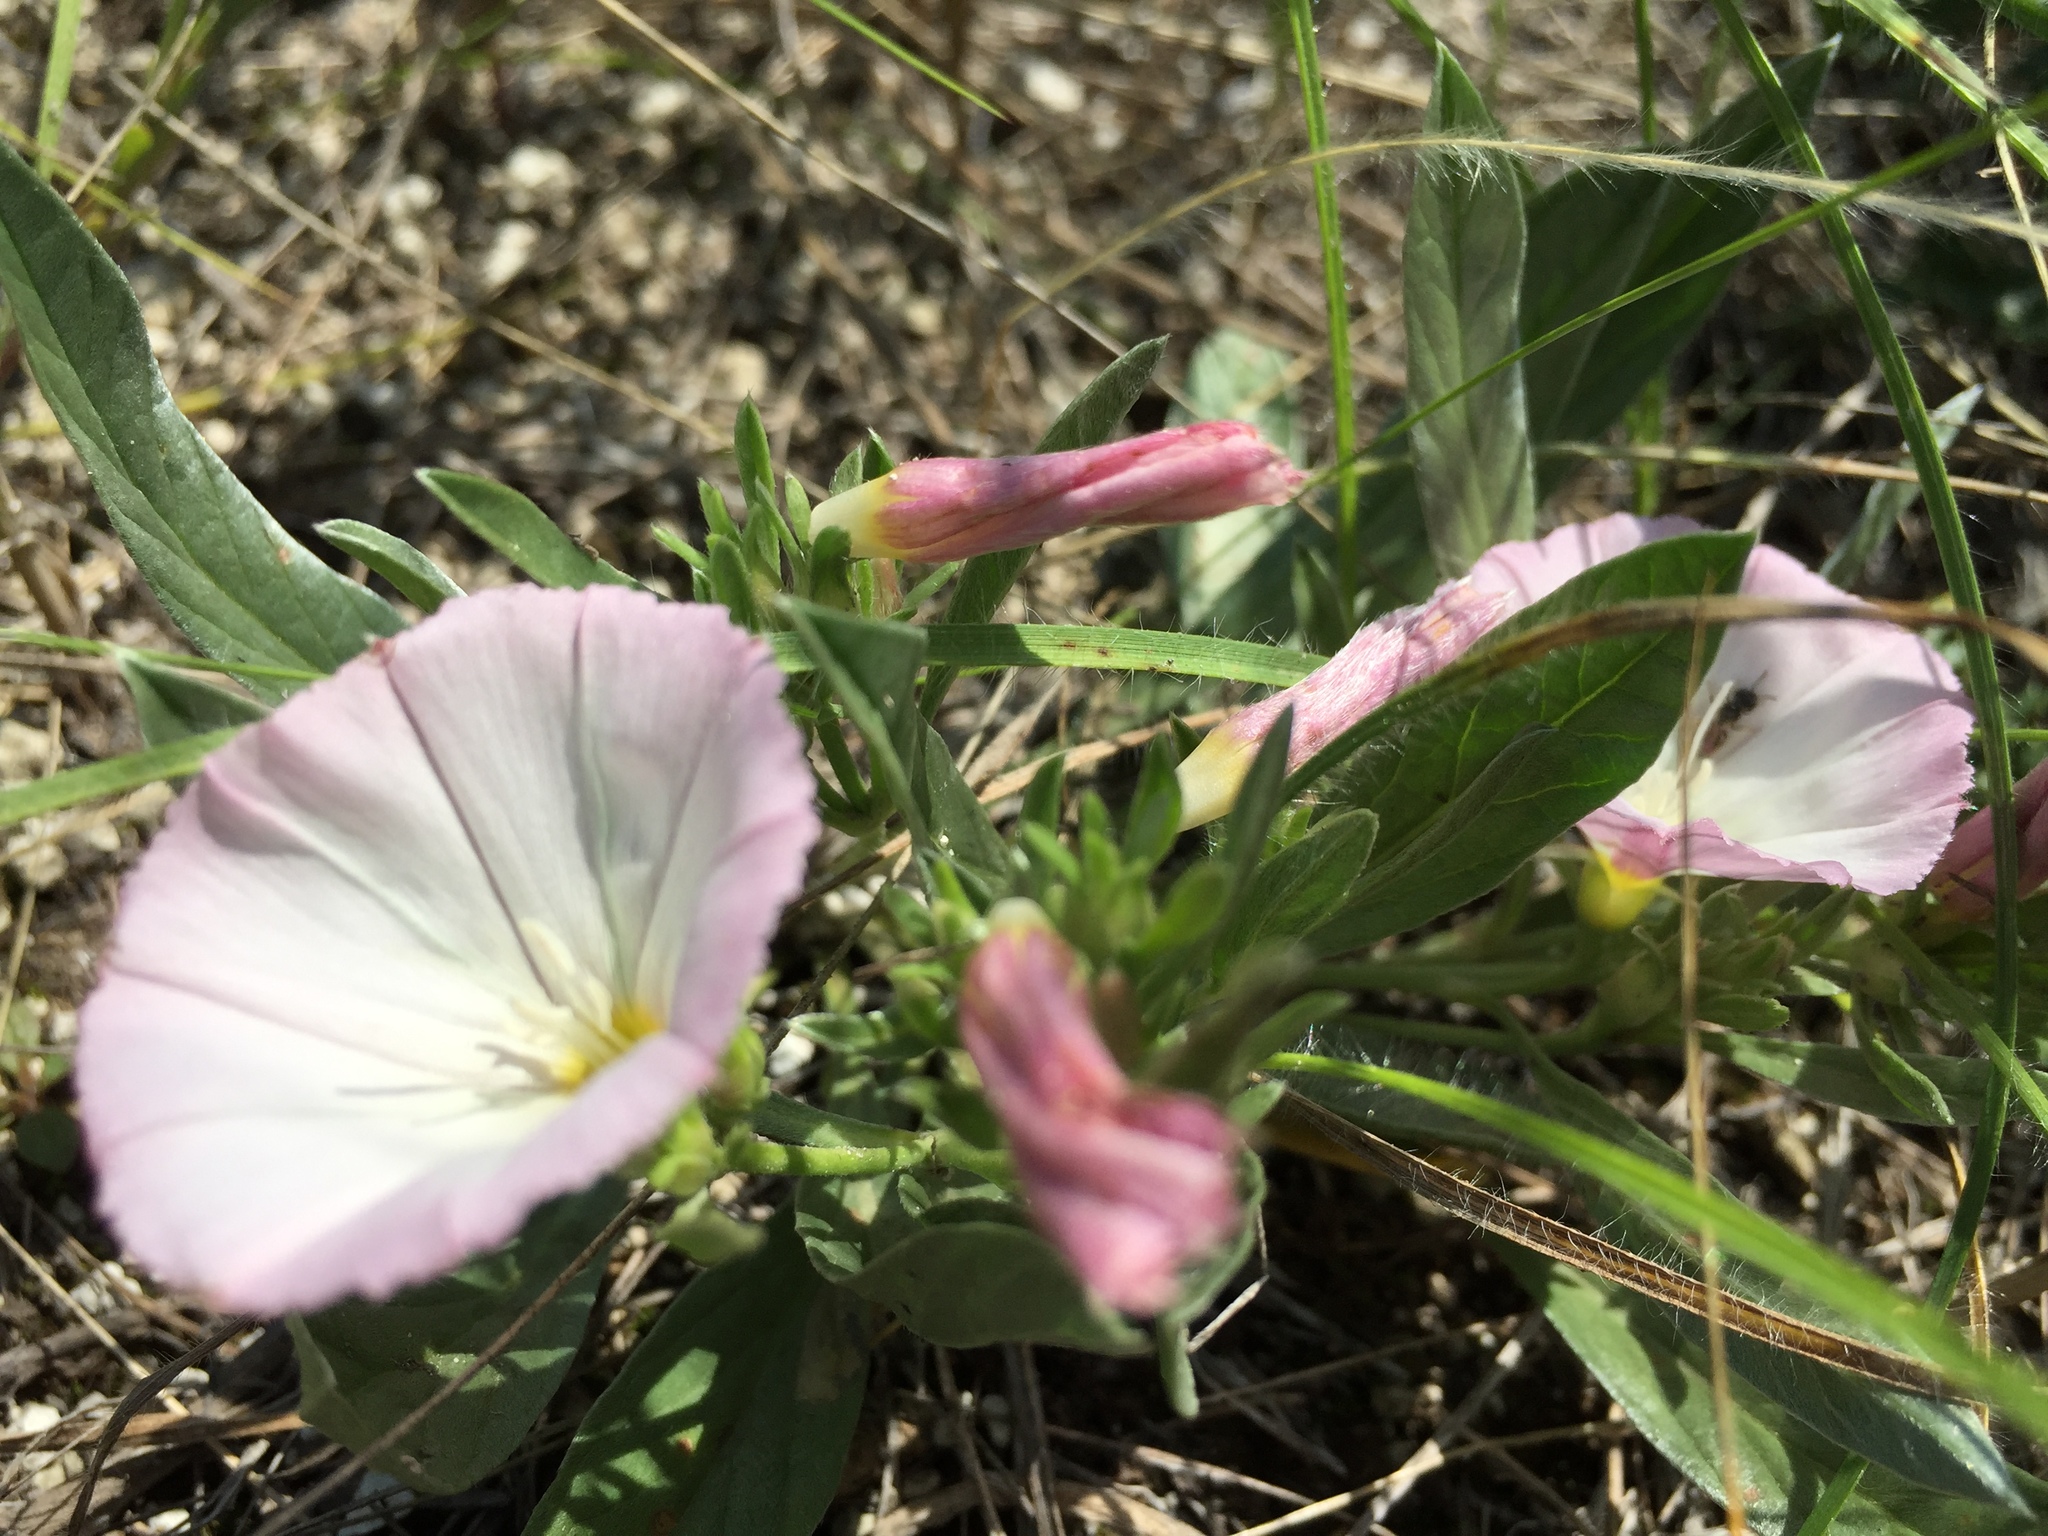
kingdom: Plantae
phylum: Tracheophyta
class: Magnoliopsida
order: Solanales
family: Convolvulaceae
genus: Convolvulus
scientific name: Convolvulus lineatus
